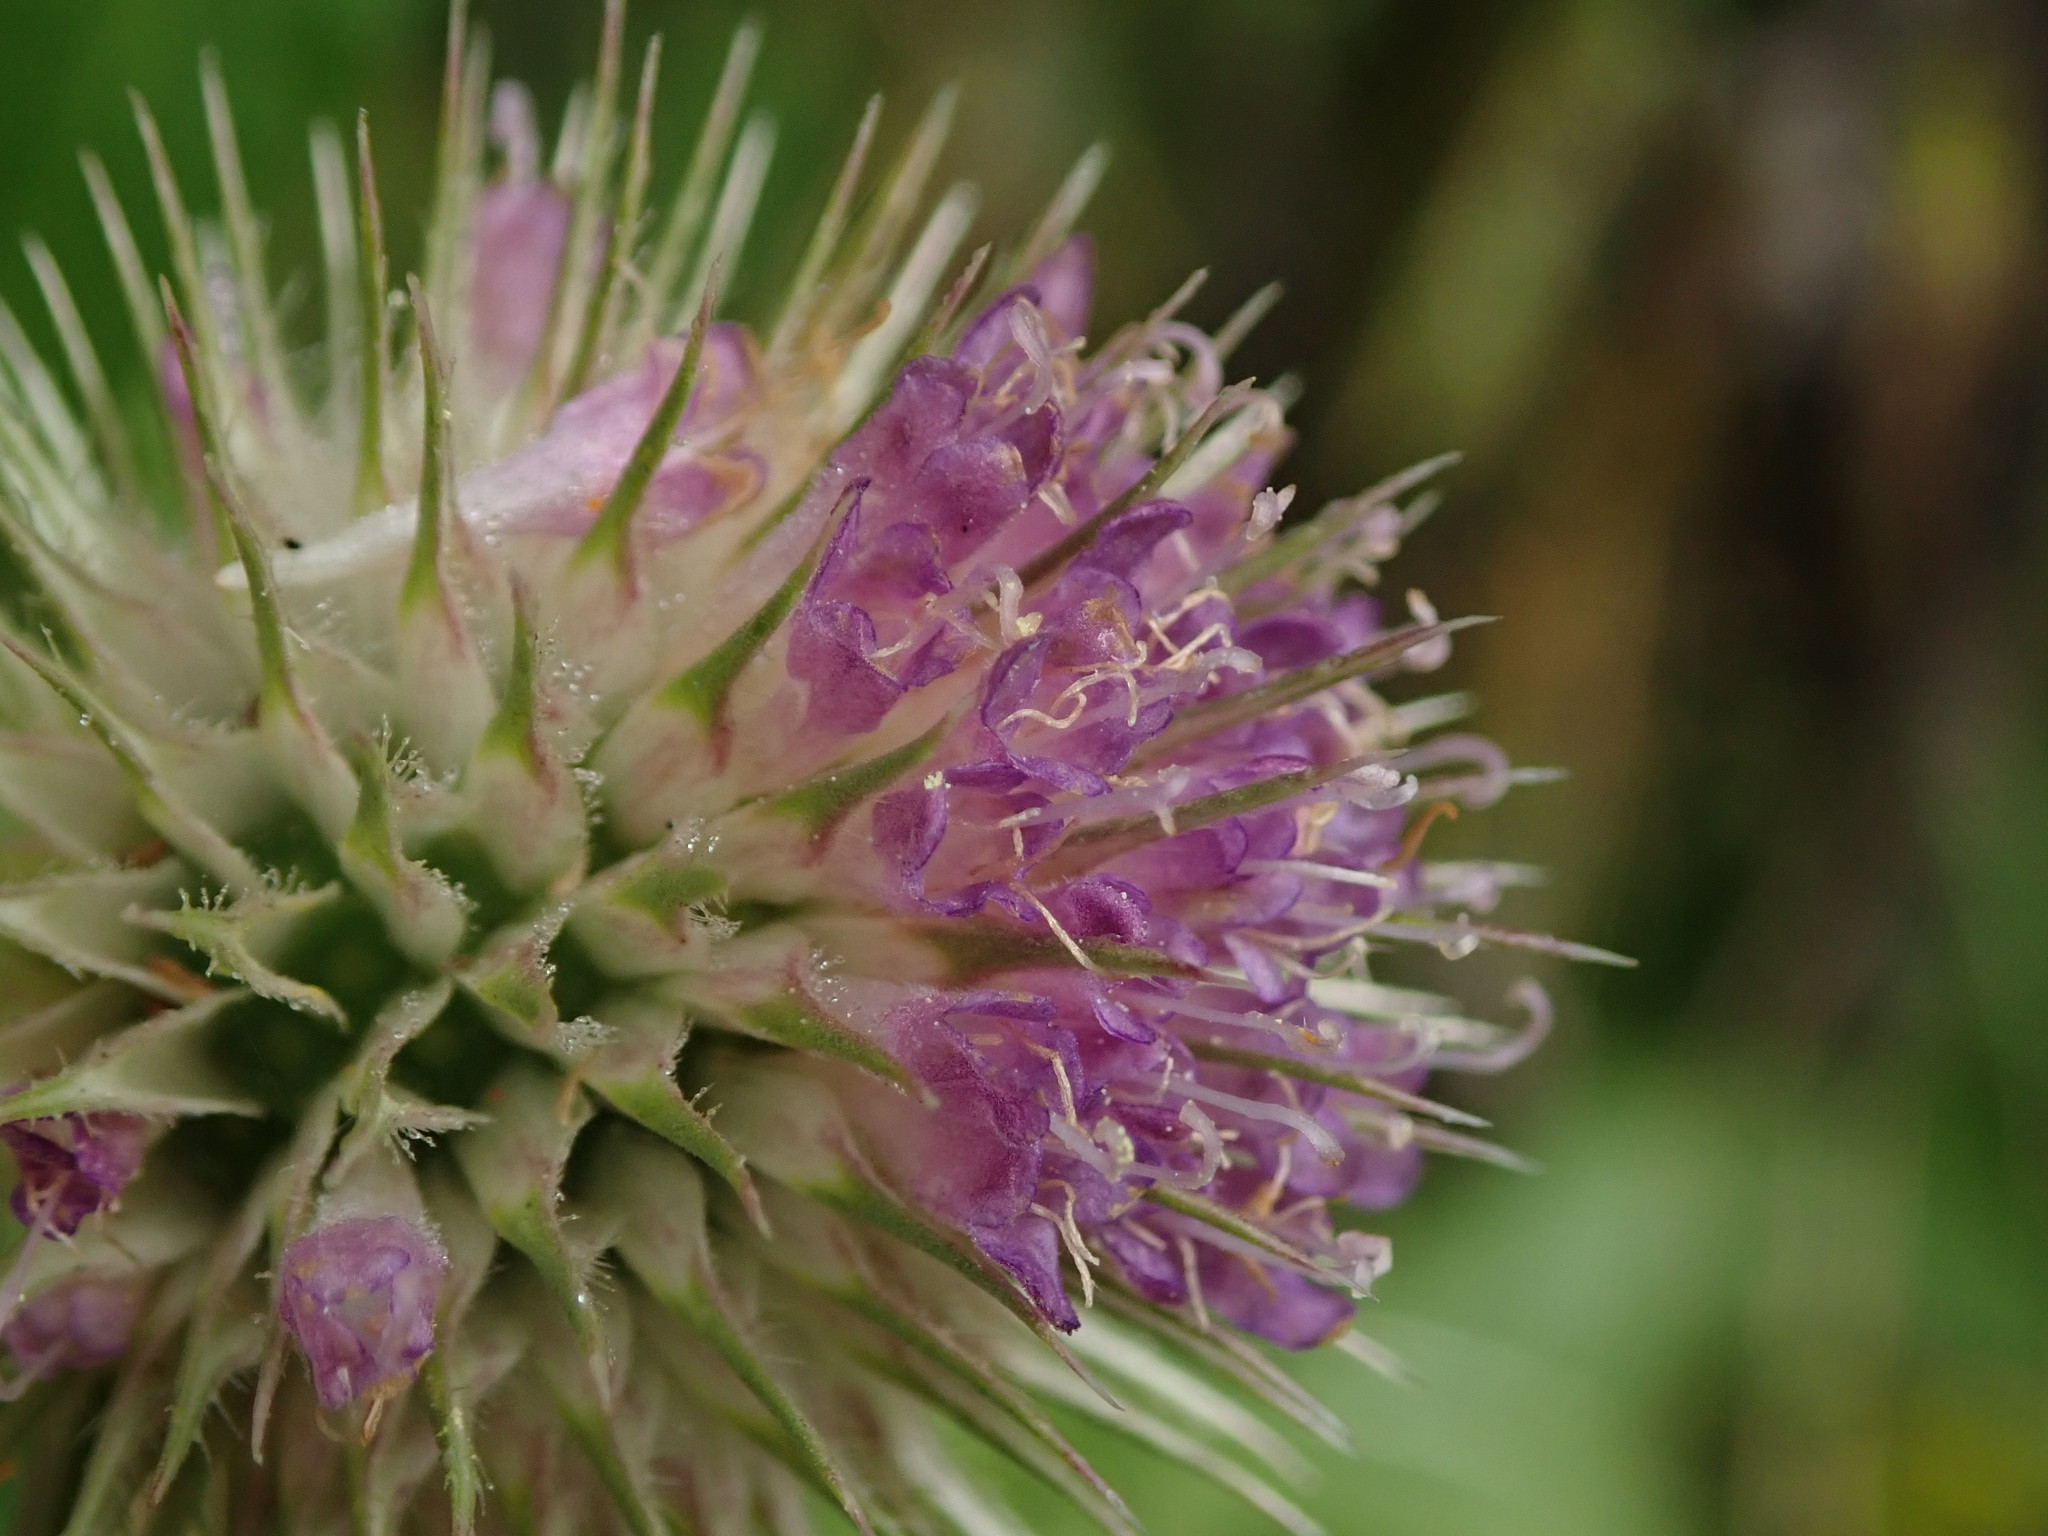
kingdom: Plantae
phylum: Tracheophyta
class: Magnoliopsida
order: Dipsacales
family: Caprifoliaceae
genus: Dipsacus
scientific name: Dipsacus fullonum
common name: Teasel
